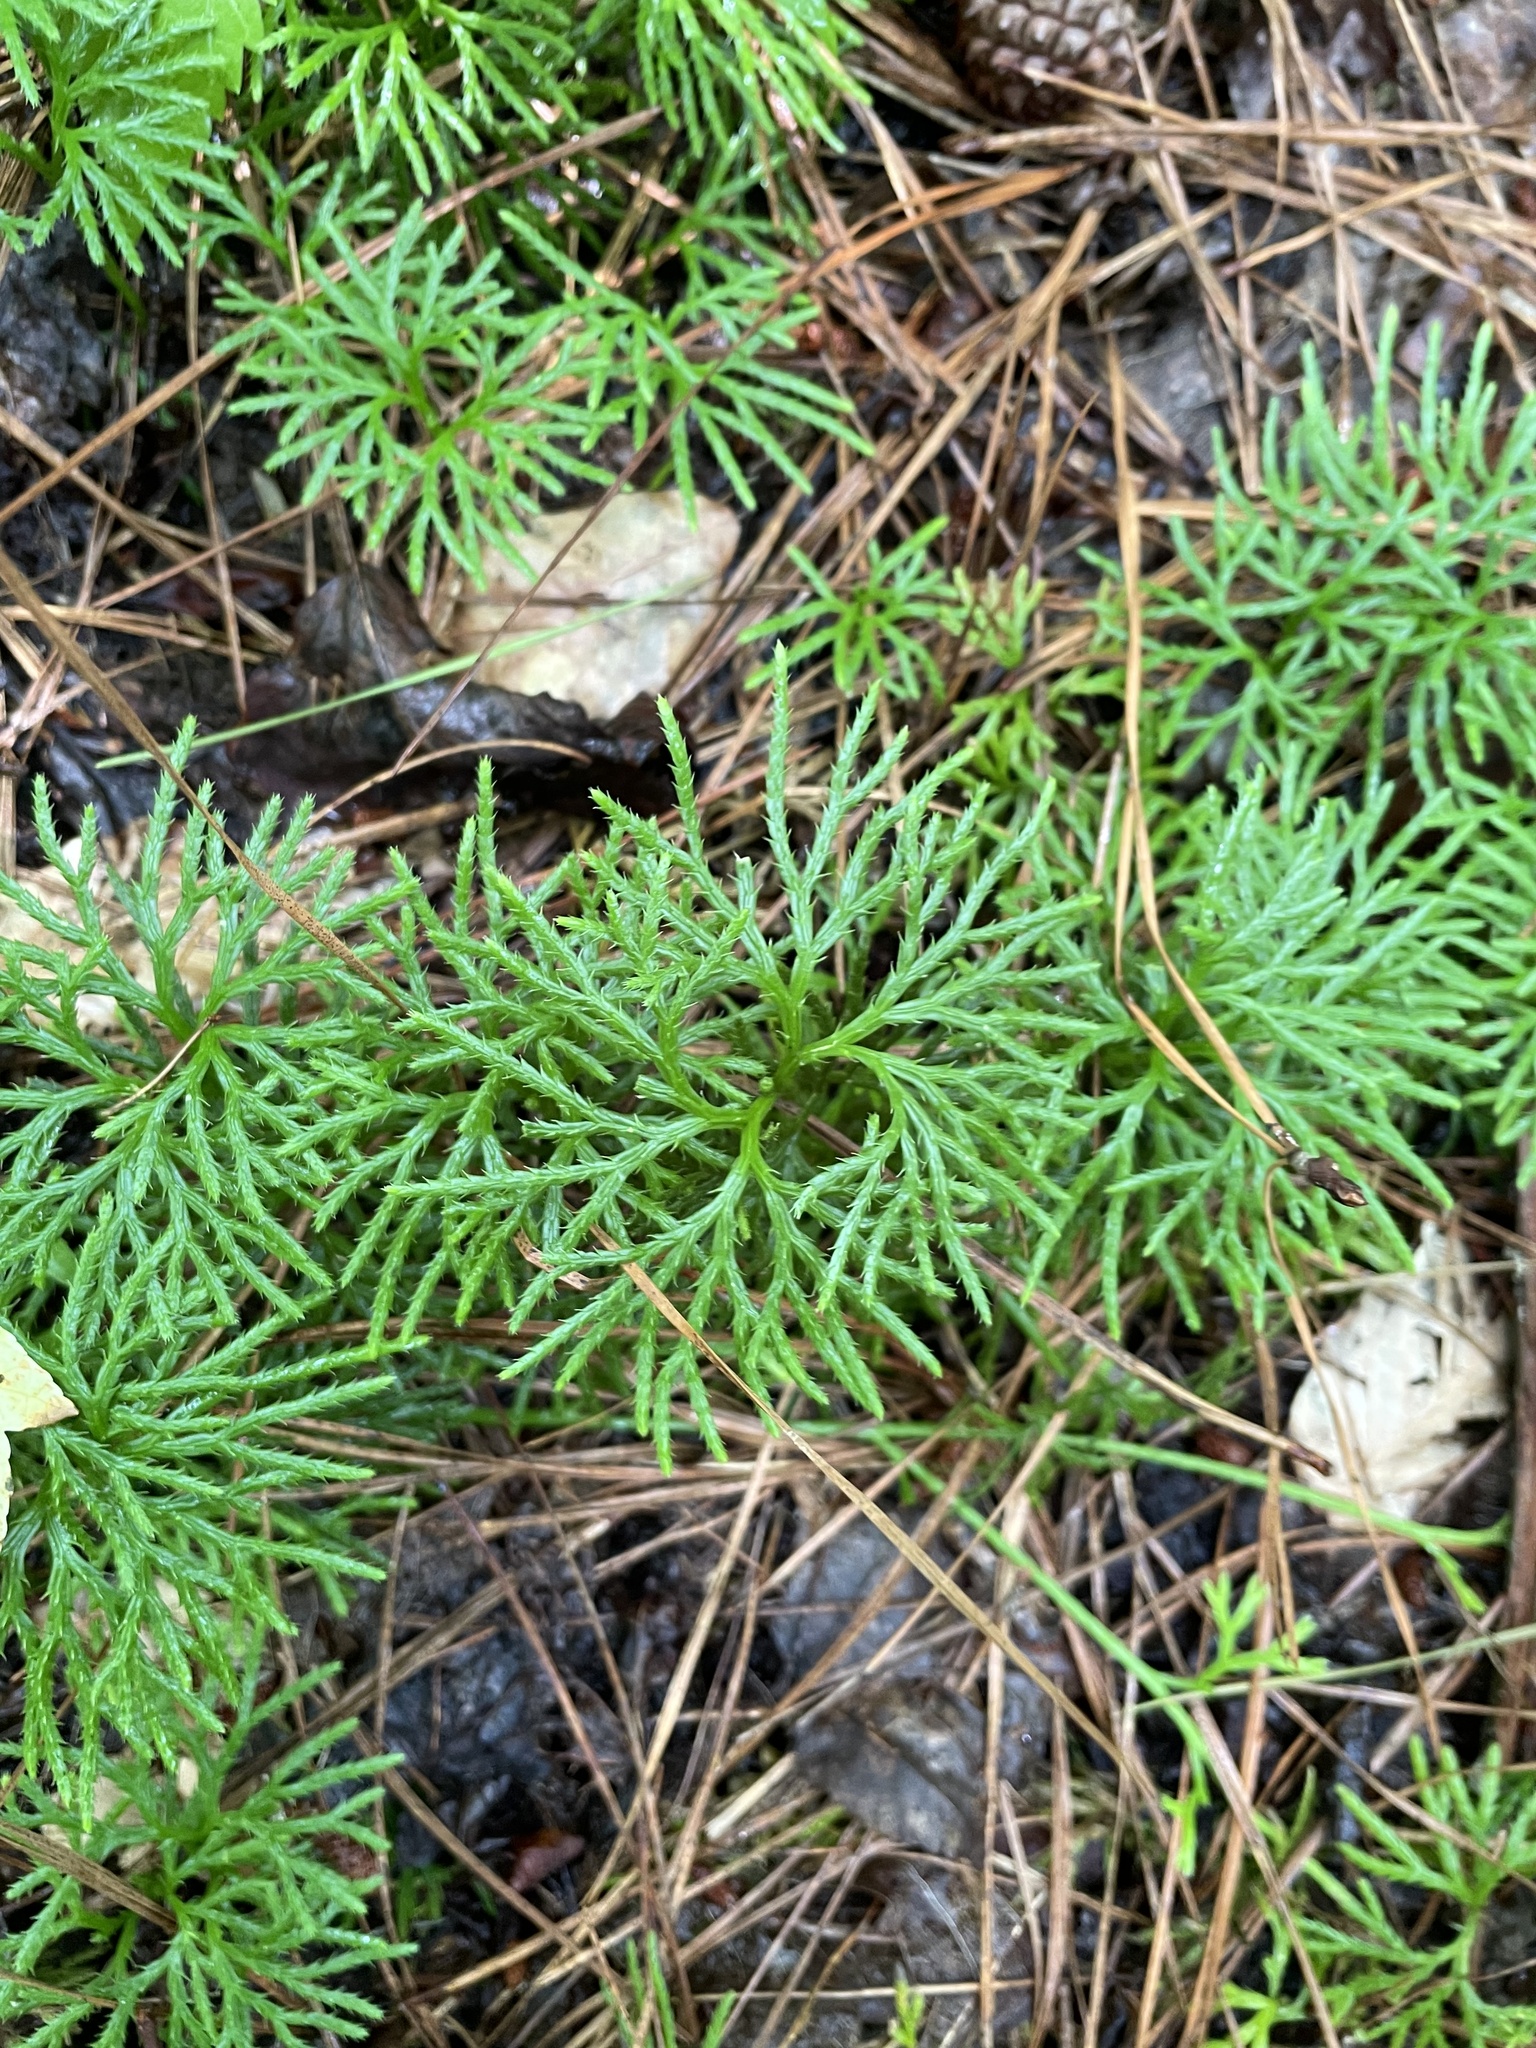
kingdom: Plantae
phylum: Tracheophyta
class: Lycopodiopsida
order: Lycopodiales
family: Lycopodiaceae
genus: Diphasiastrum
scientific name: Diphasiastrum digitatum
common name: Southern running-pine
